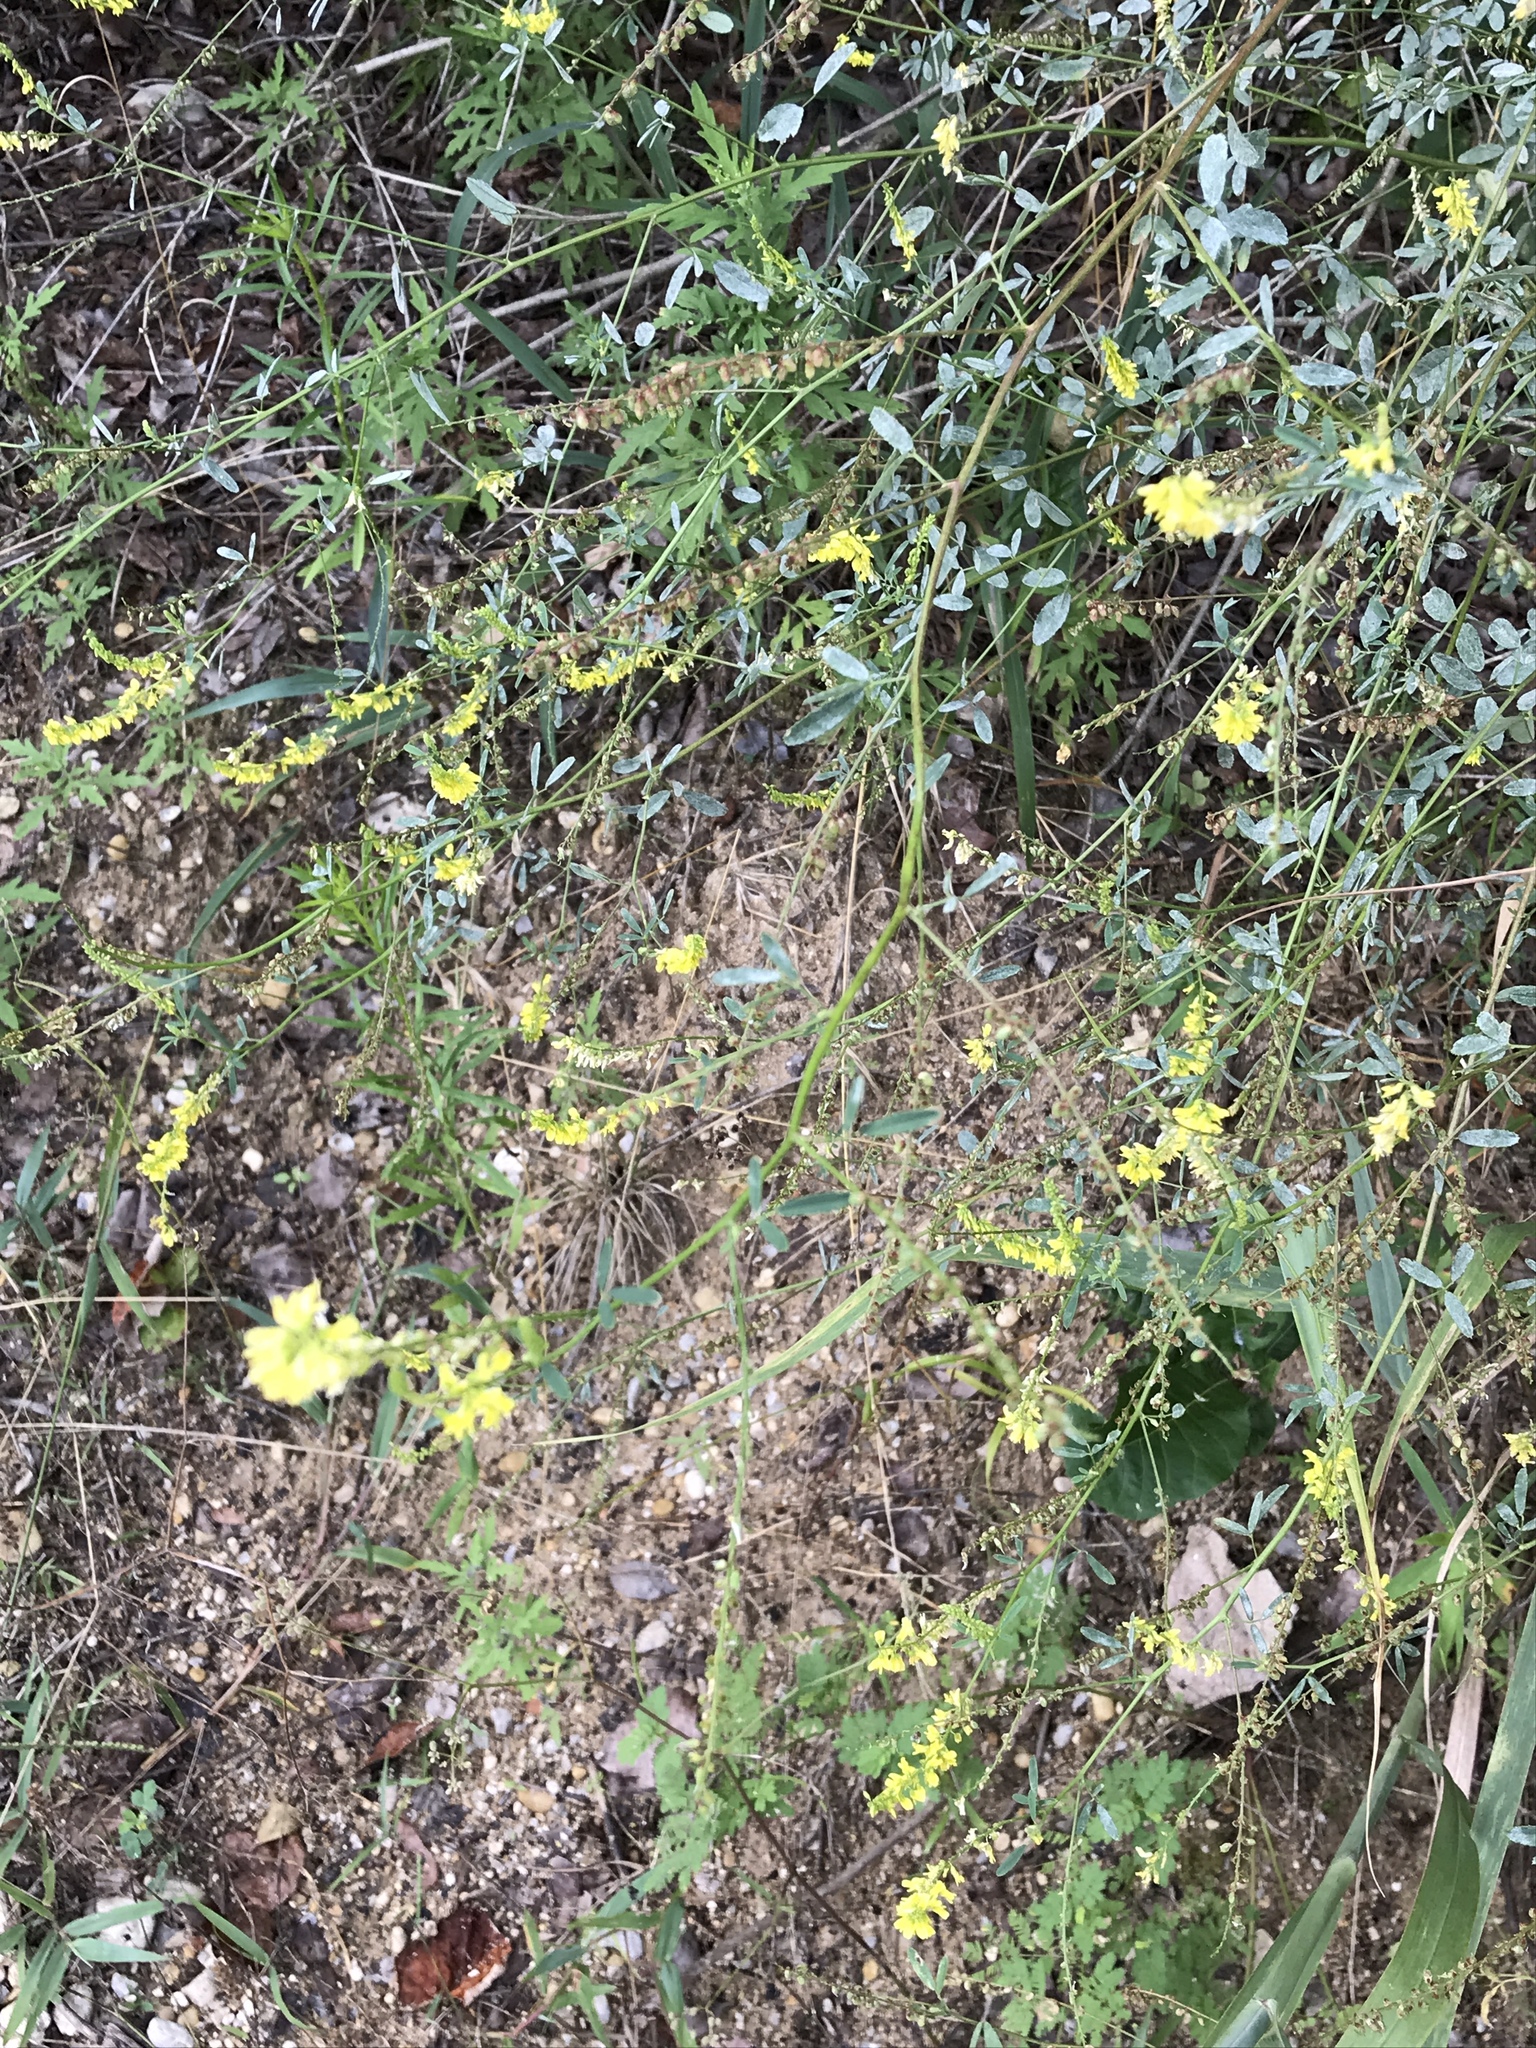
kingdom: Plantae
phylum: Tracheophyta
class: Magnoliopsida
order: Fabales
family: Fabaceae
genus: Melilotus
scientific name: Melilotus officinalis
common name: Sweetclover
